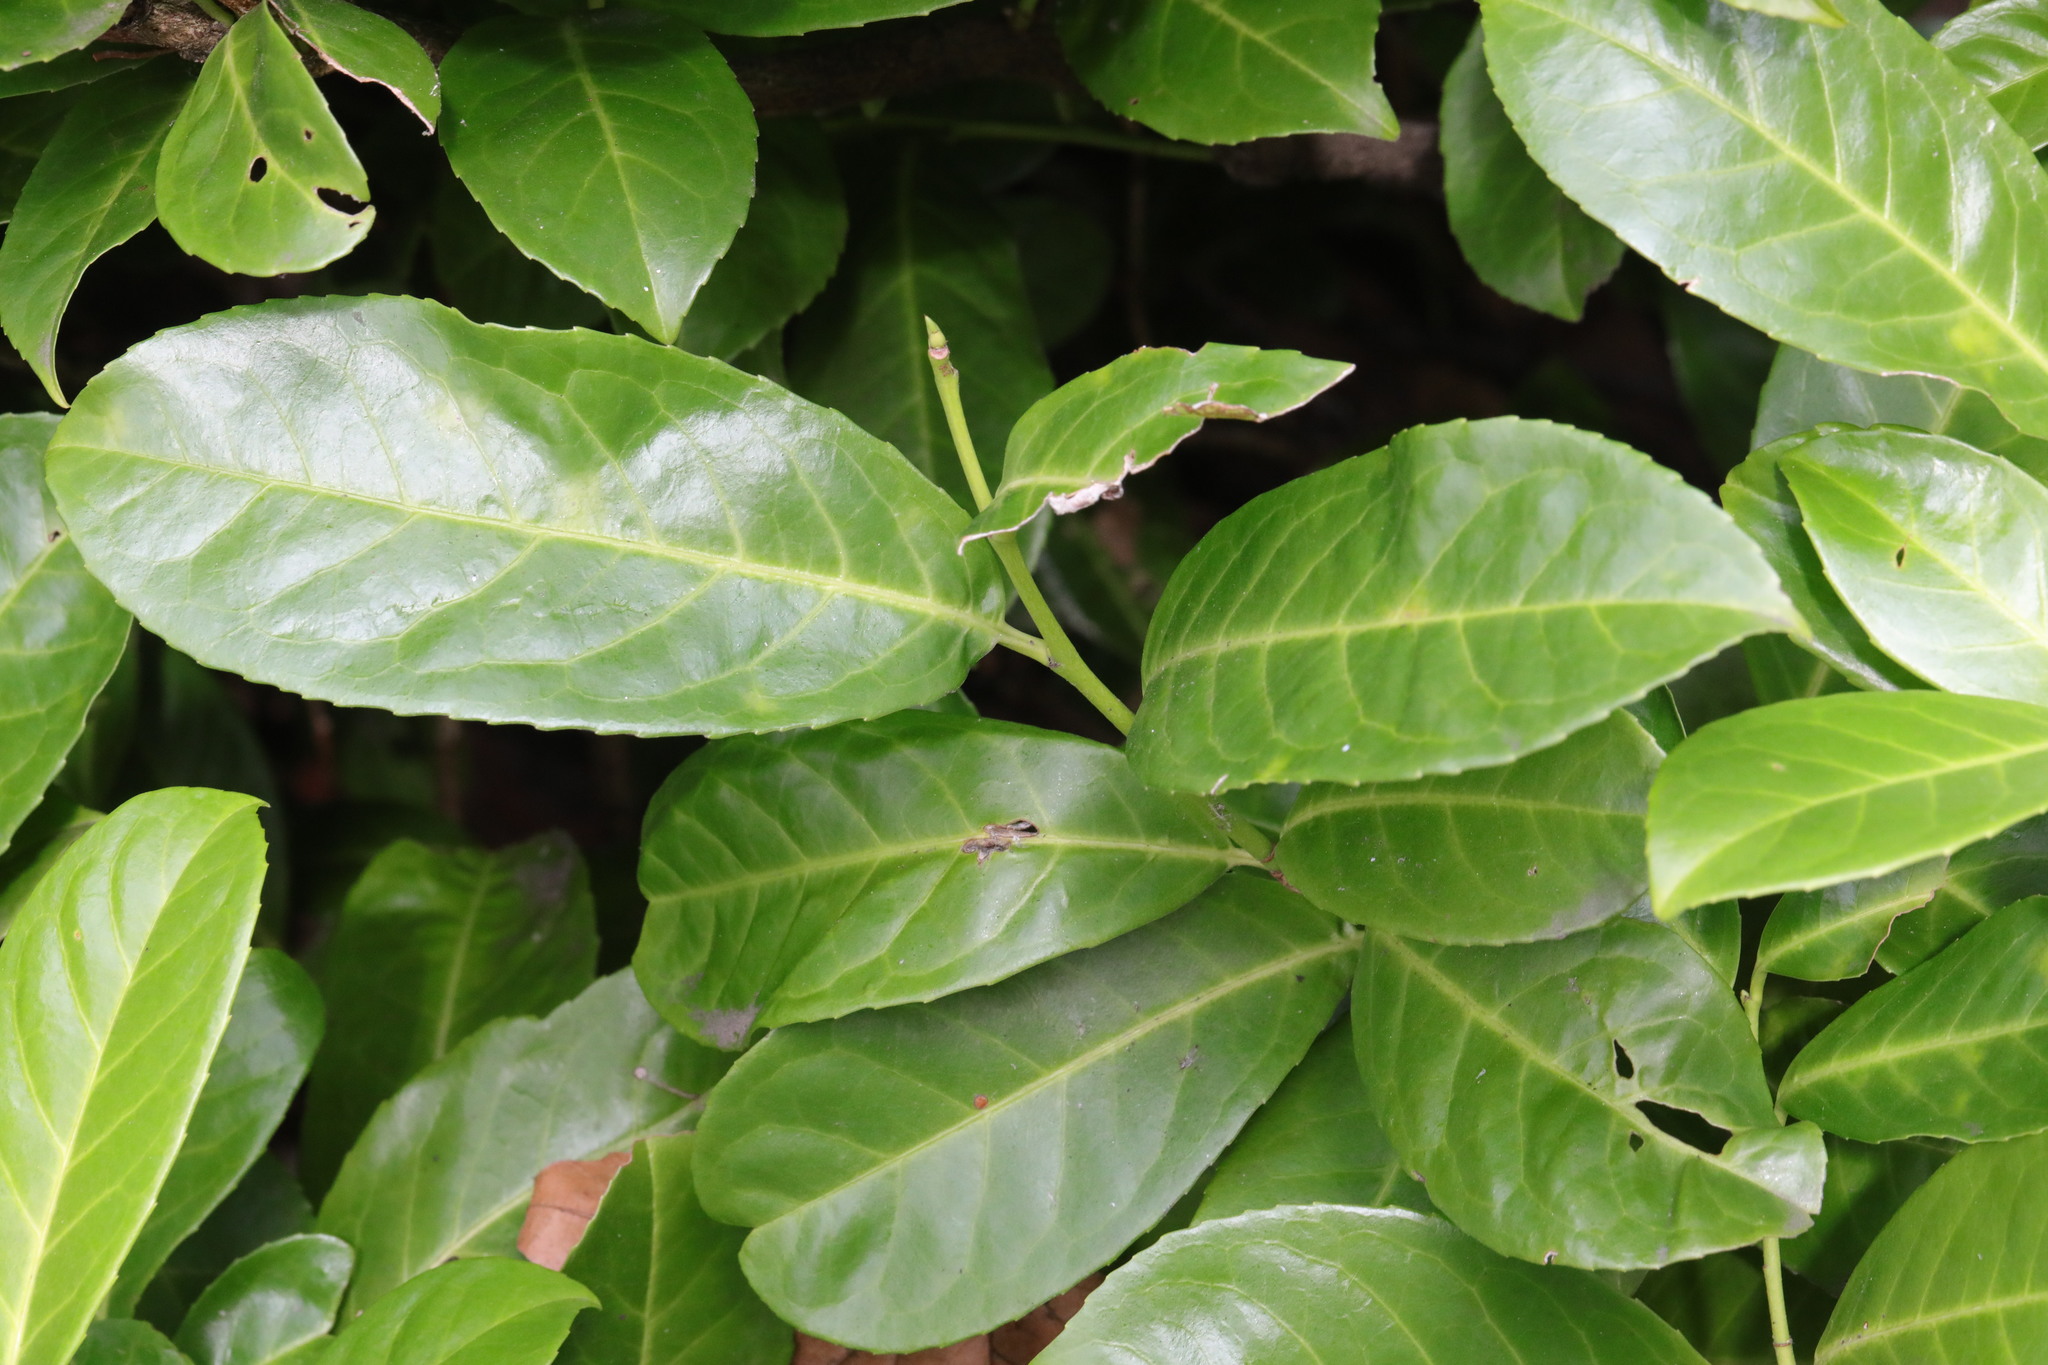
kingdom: Plantae
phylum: Tracheophyta
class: Magnoliopsida
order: Rosales
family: Rosaceae
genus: Prunus
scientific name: Prunus laurocerasus
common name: Cherry laurel
